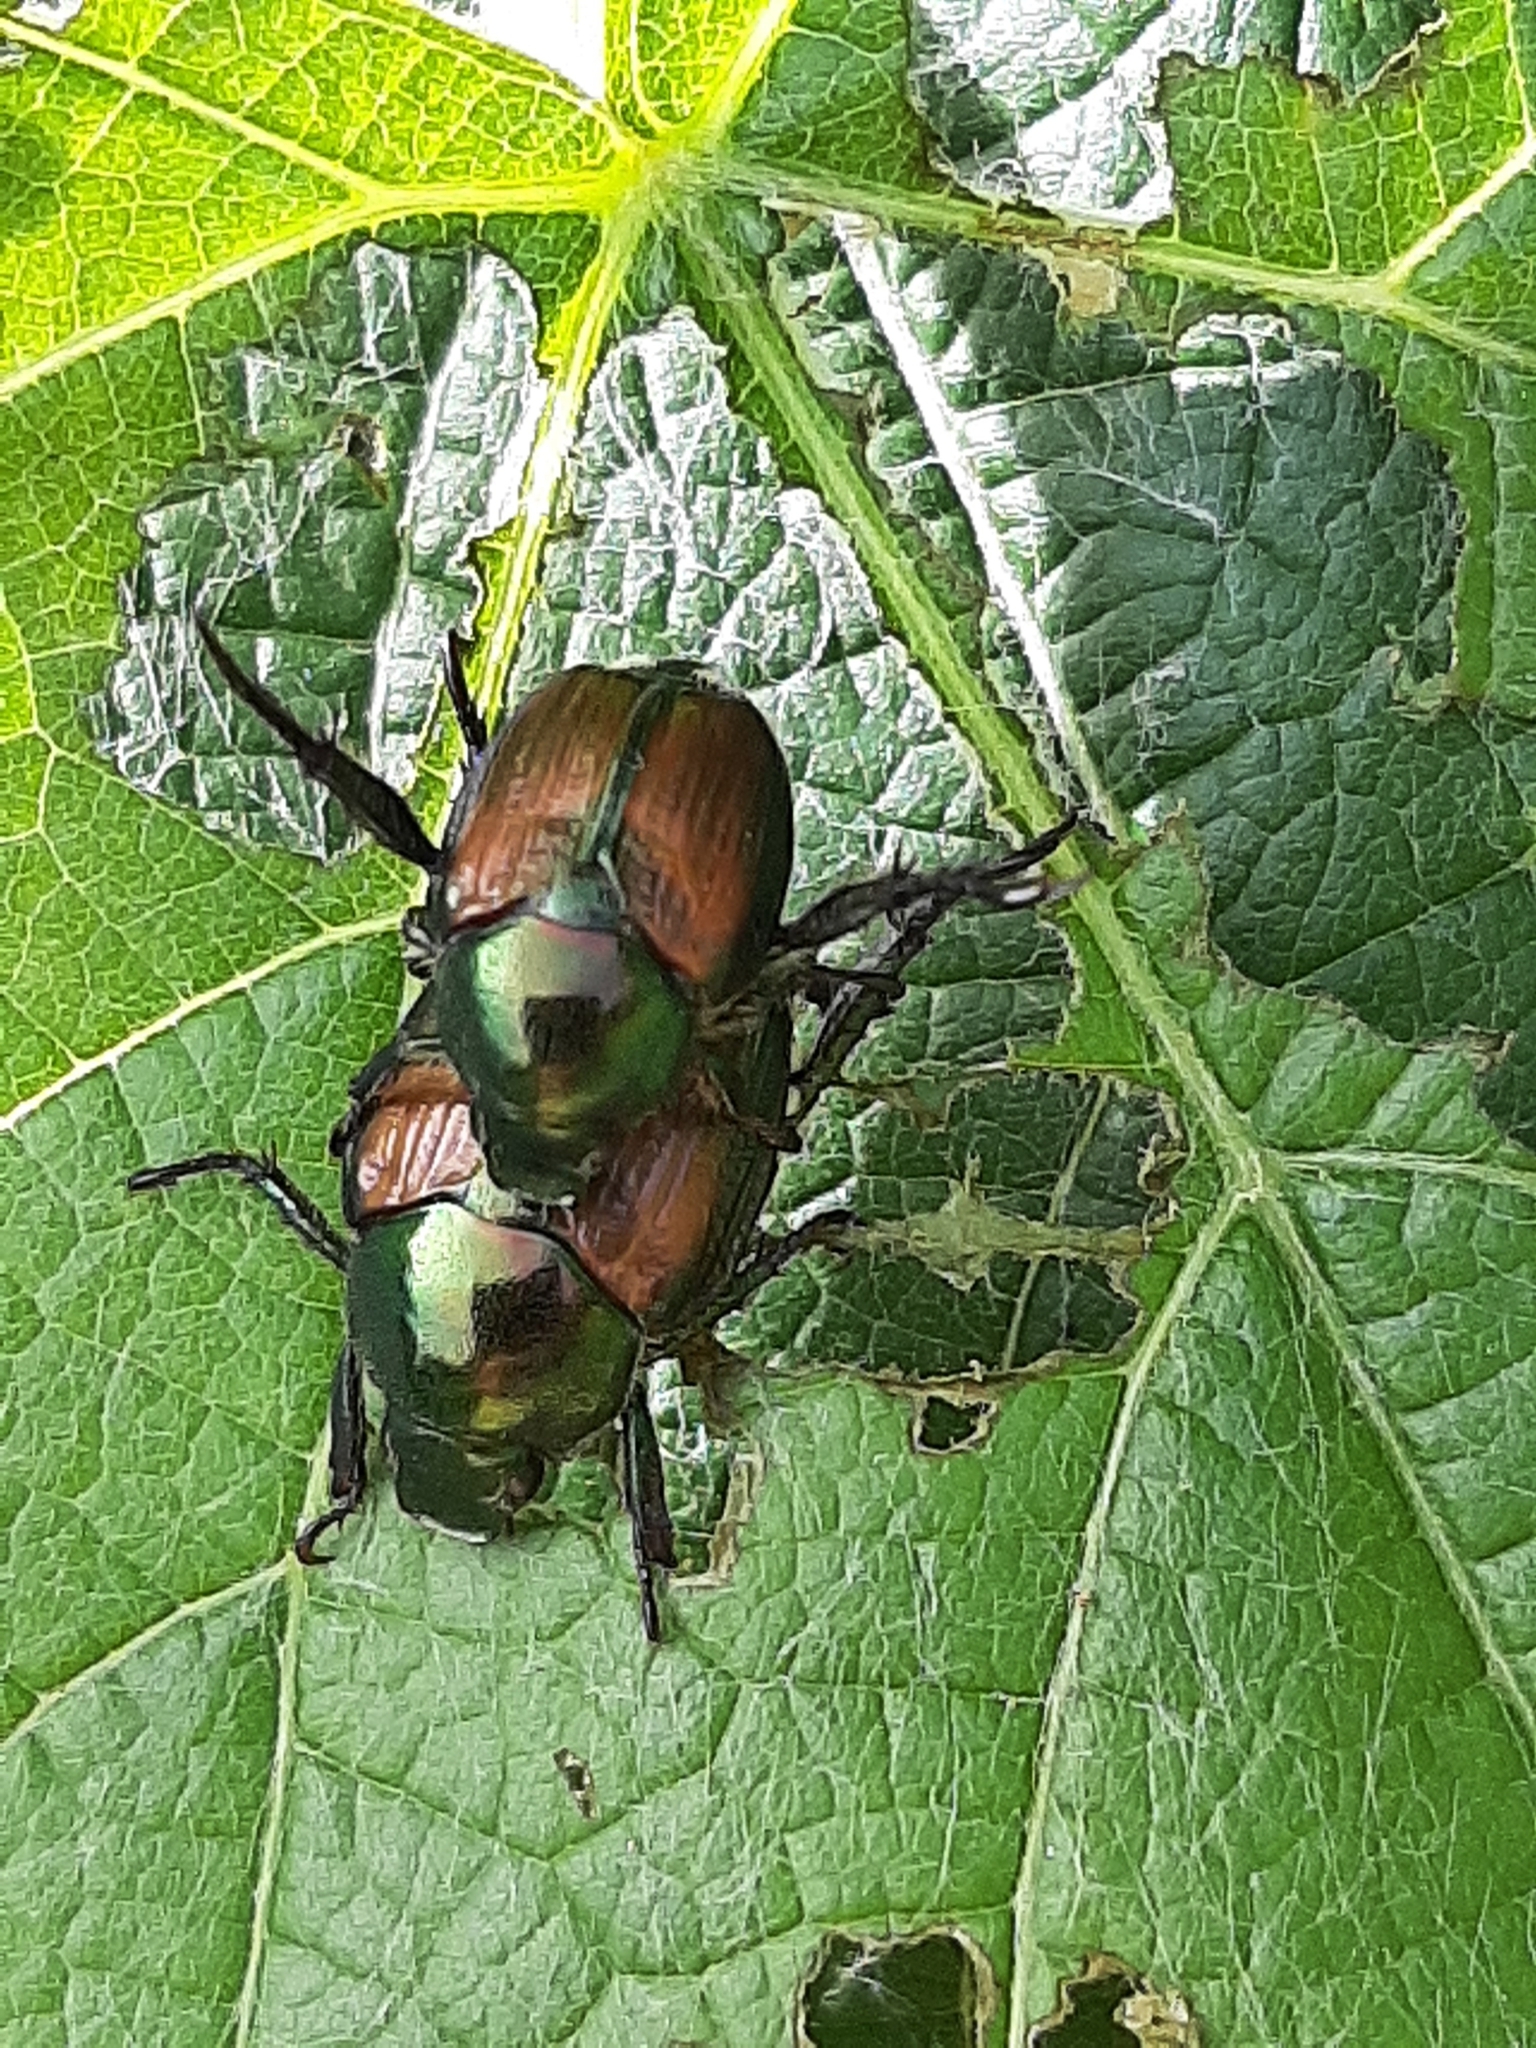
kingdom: Animalia
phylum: Arthropoda
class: Insecta
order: Coleoptera
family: Scarabaeidae
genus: Popillia
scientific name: Popillia japonica
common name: Japanese beetle
